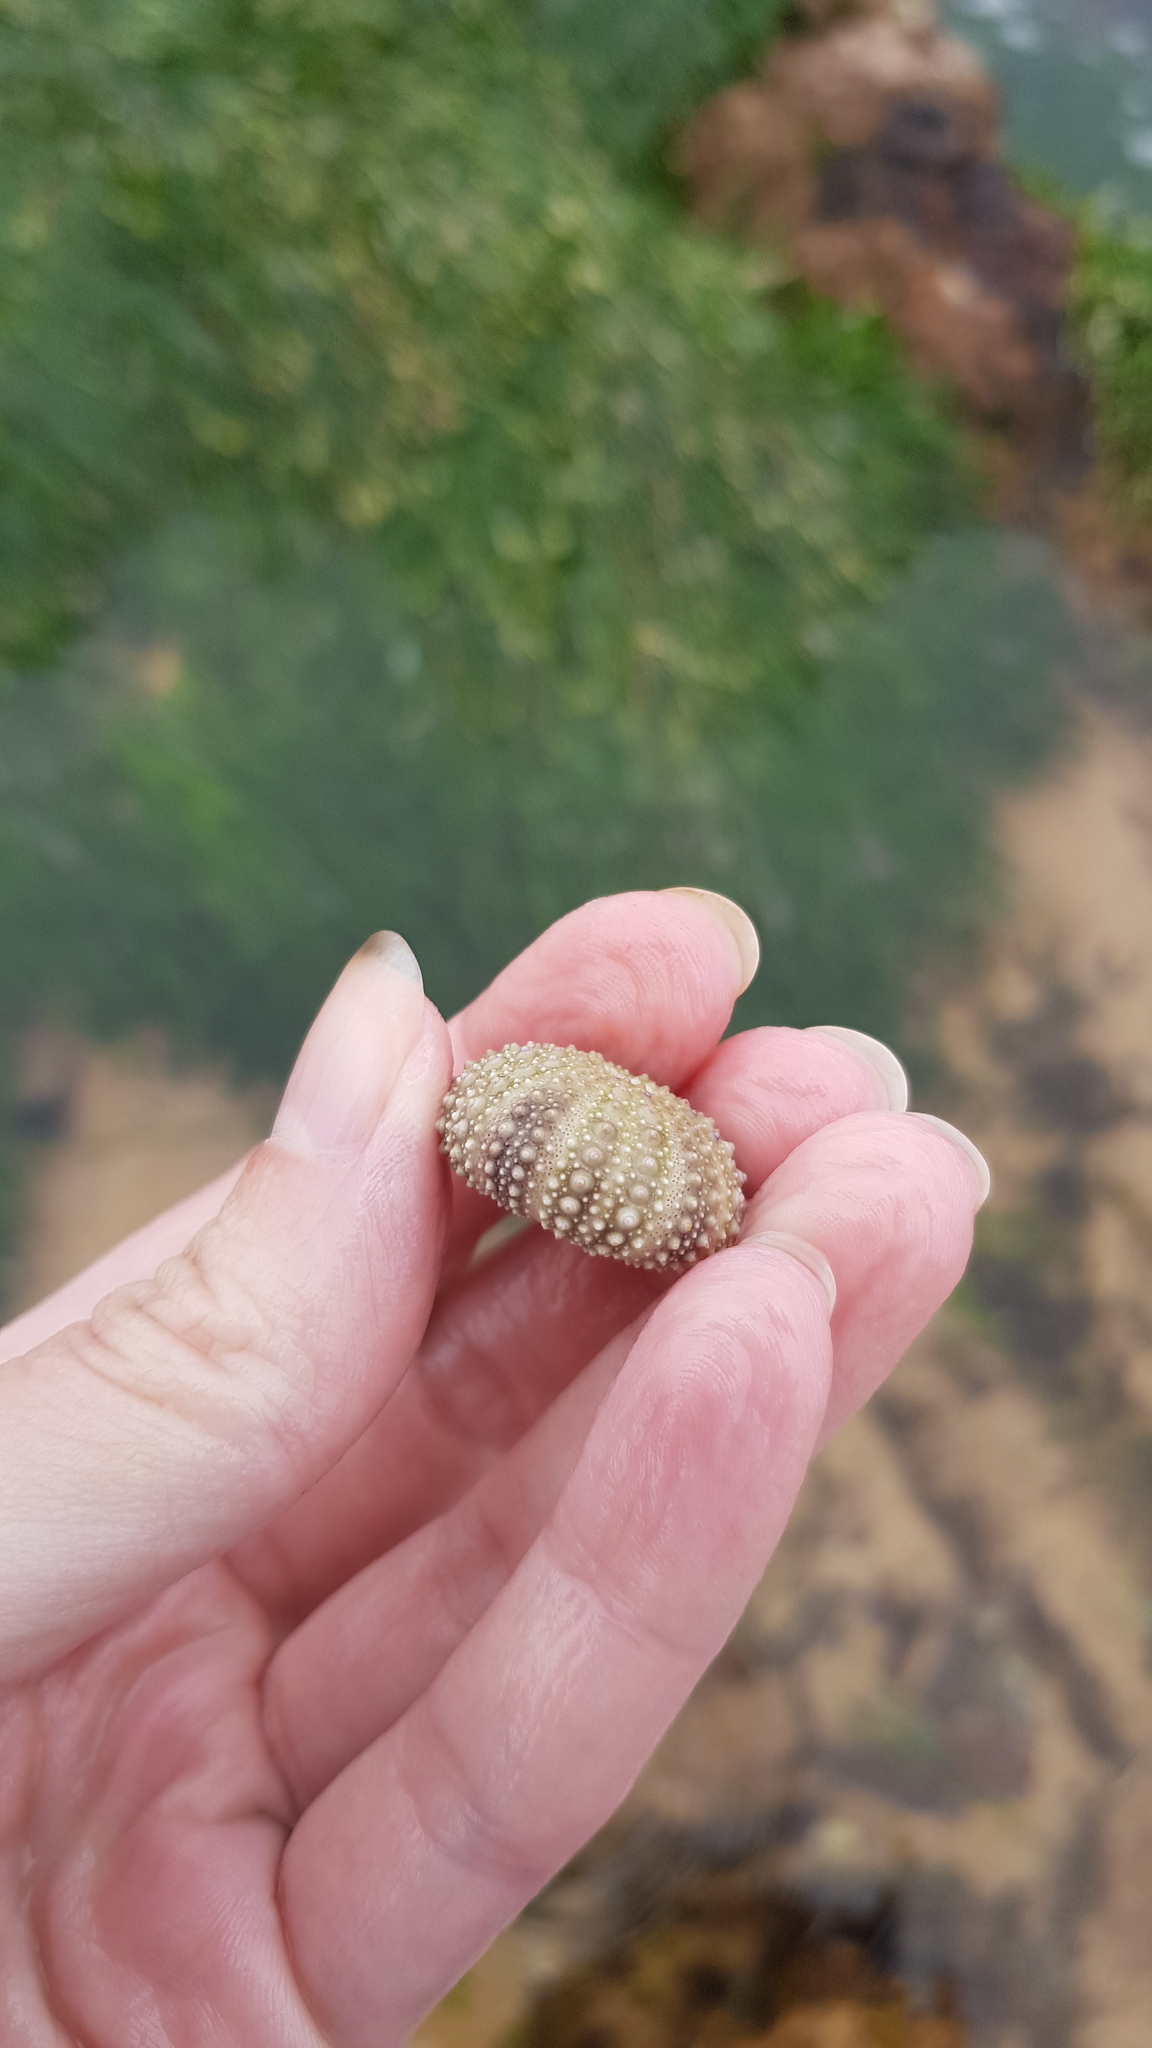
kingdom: Animalia
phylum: Echinodermata
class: Echinoidea
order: Camarodonta
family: Echinometridae
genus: Heliocidaris
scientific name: Heliocidaris erythrogramma
